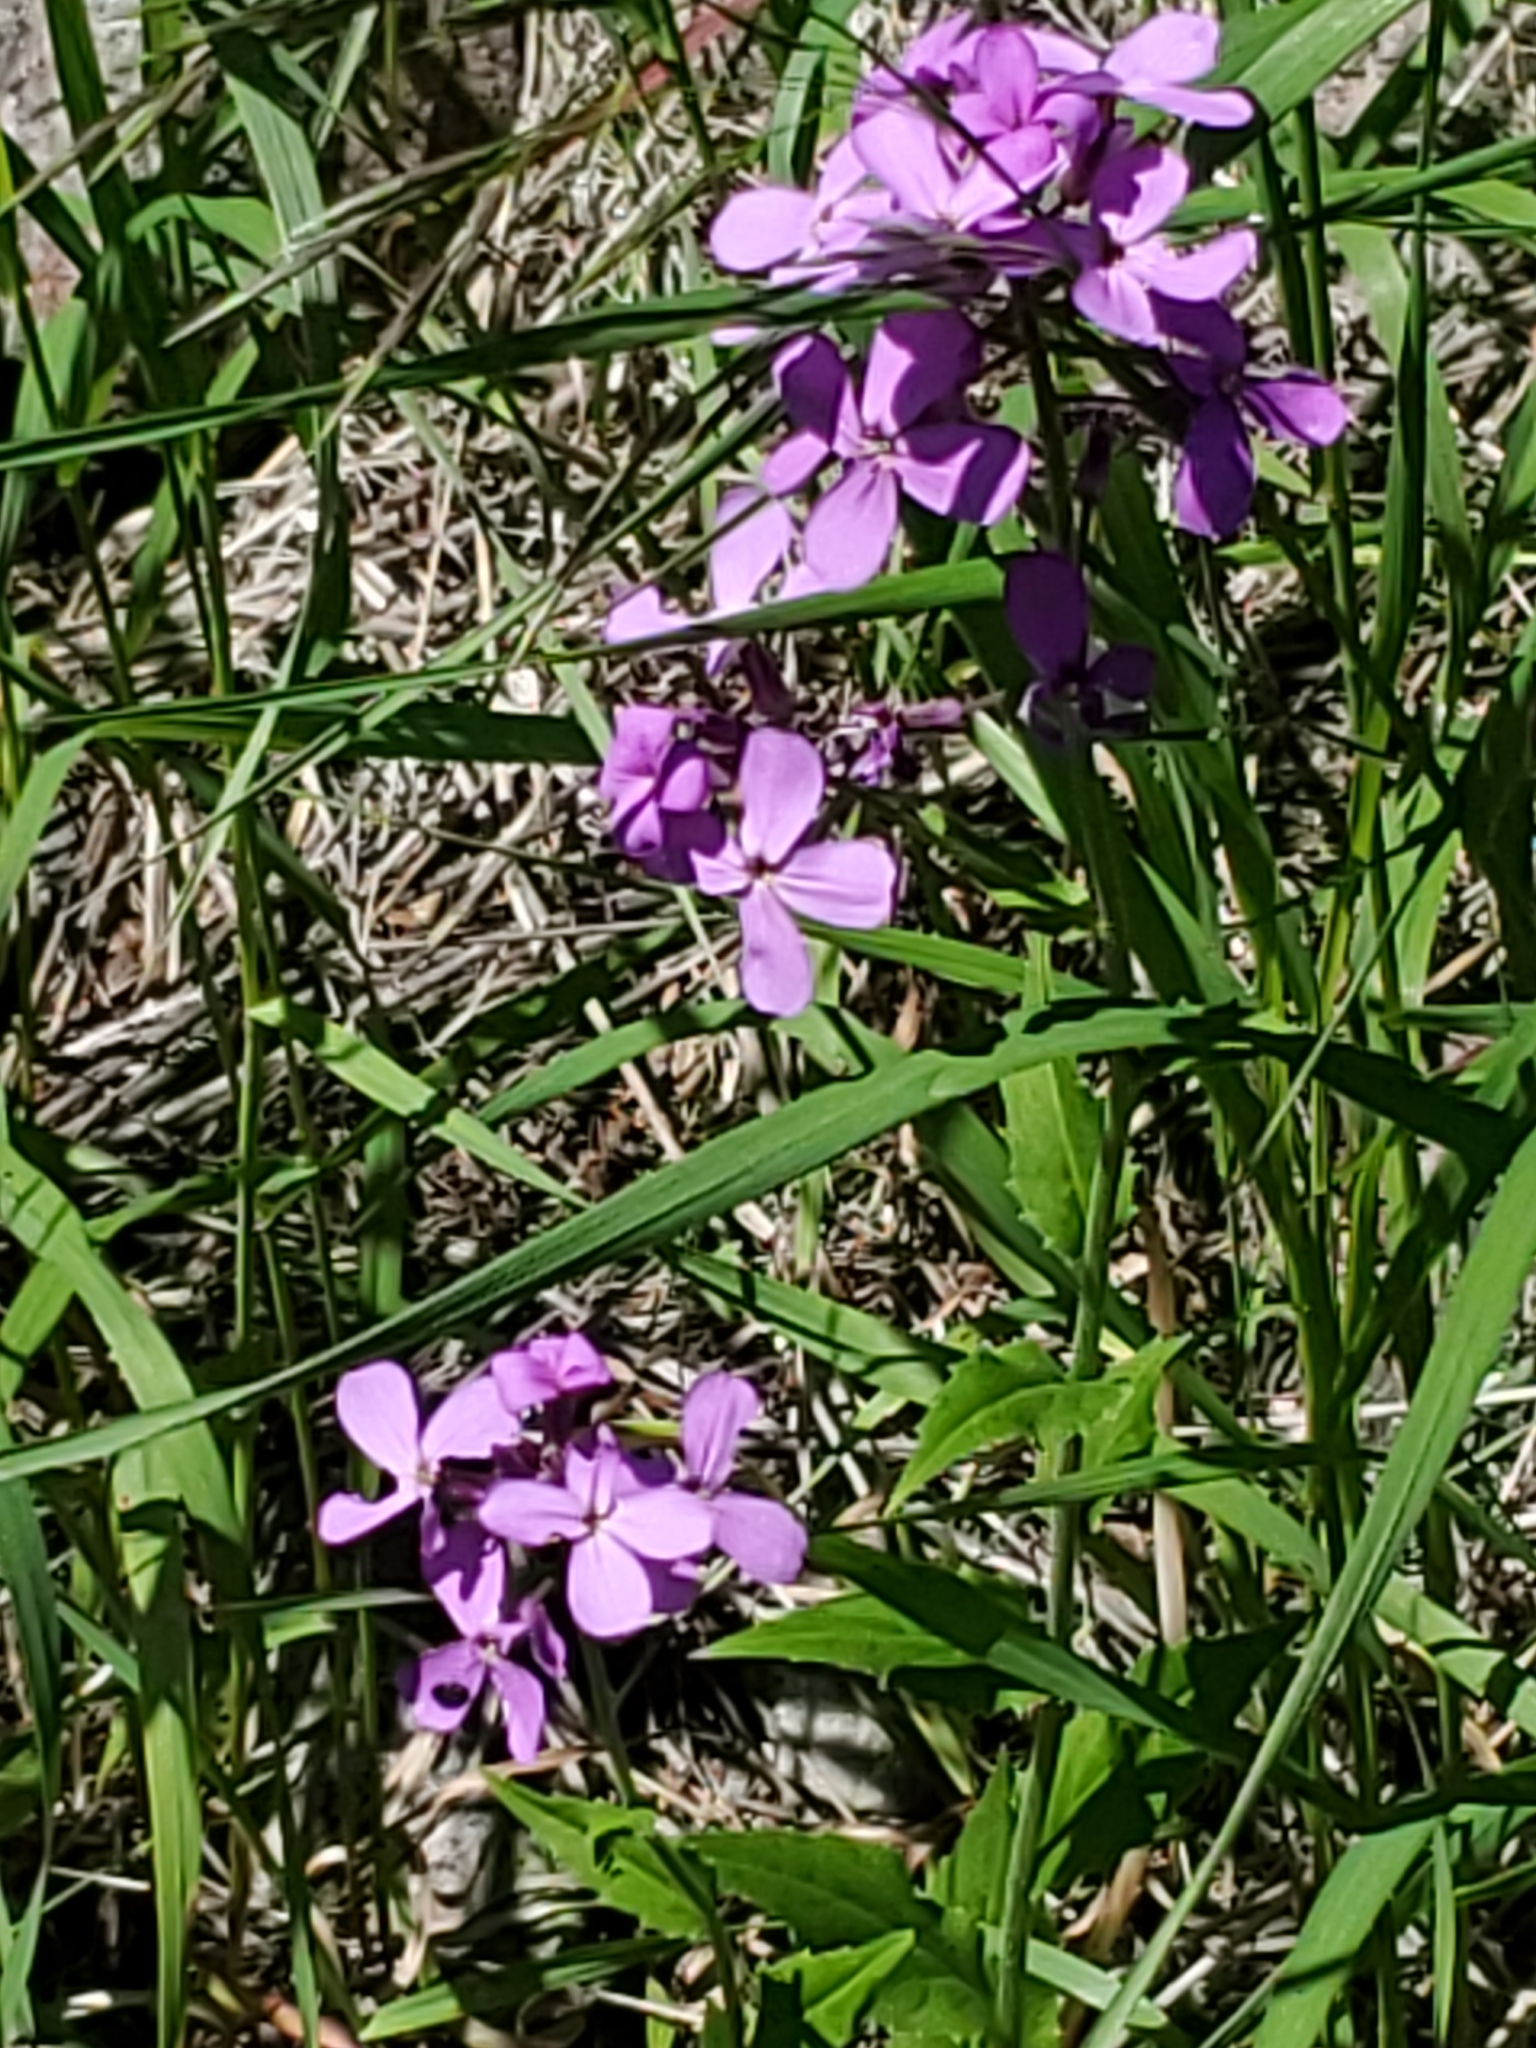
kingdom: Plantae
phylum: Tracheophyta
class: Magnoliopsida
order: Brassicales
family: Brassicaceae
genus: Hesperis
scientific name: Hesperis matronalis
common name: Dame's-violet
